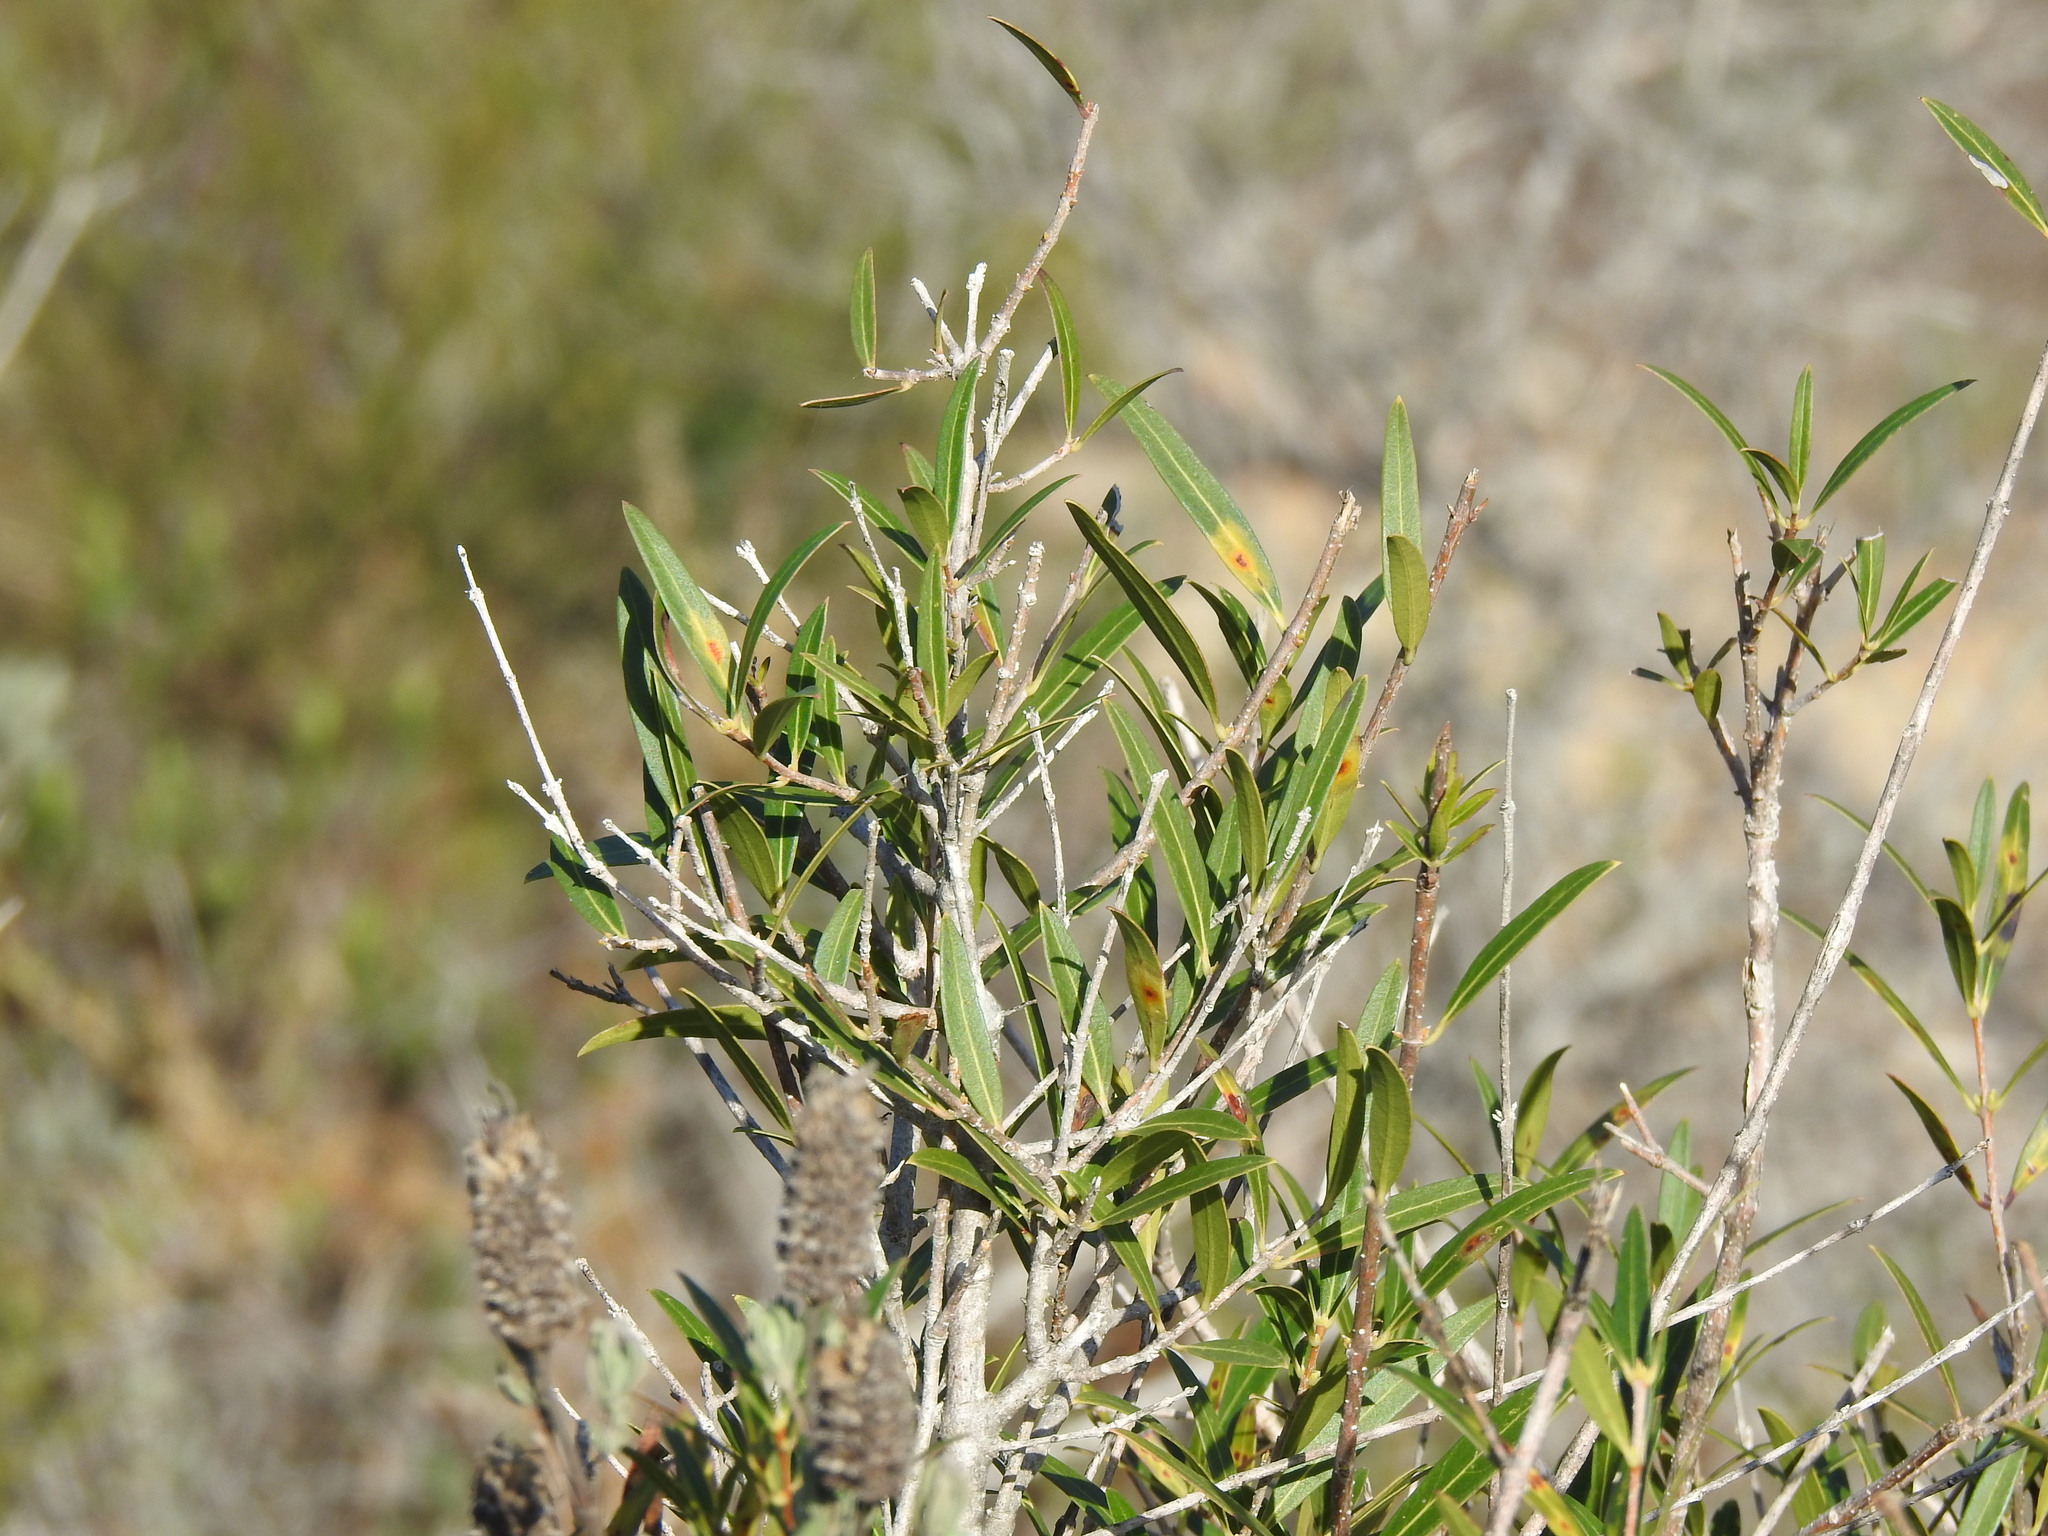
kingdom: Animalia
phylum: Arthropoda
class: Insecta
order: Diptera
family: Cecidomyiidae
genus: Braueriella
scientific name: Braueriella phillyreae
